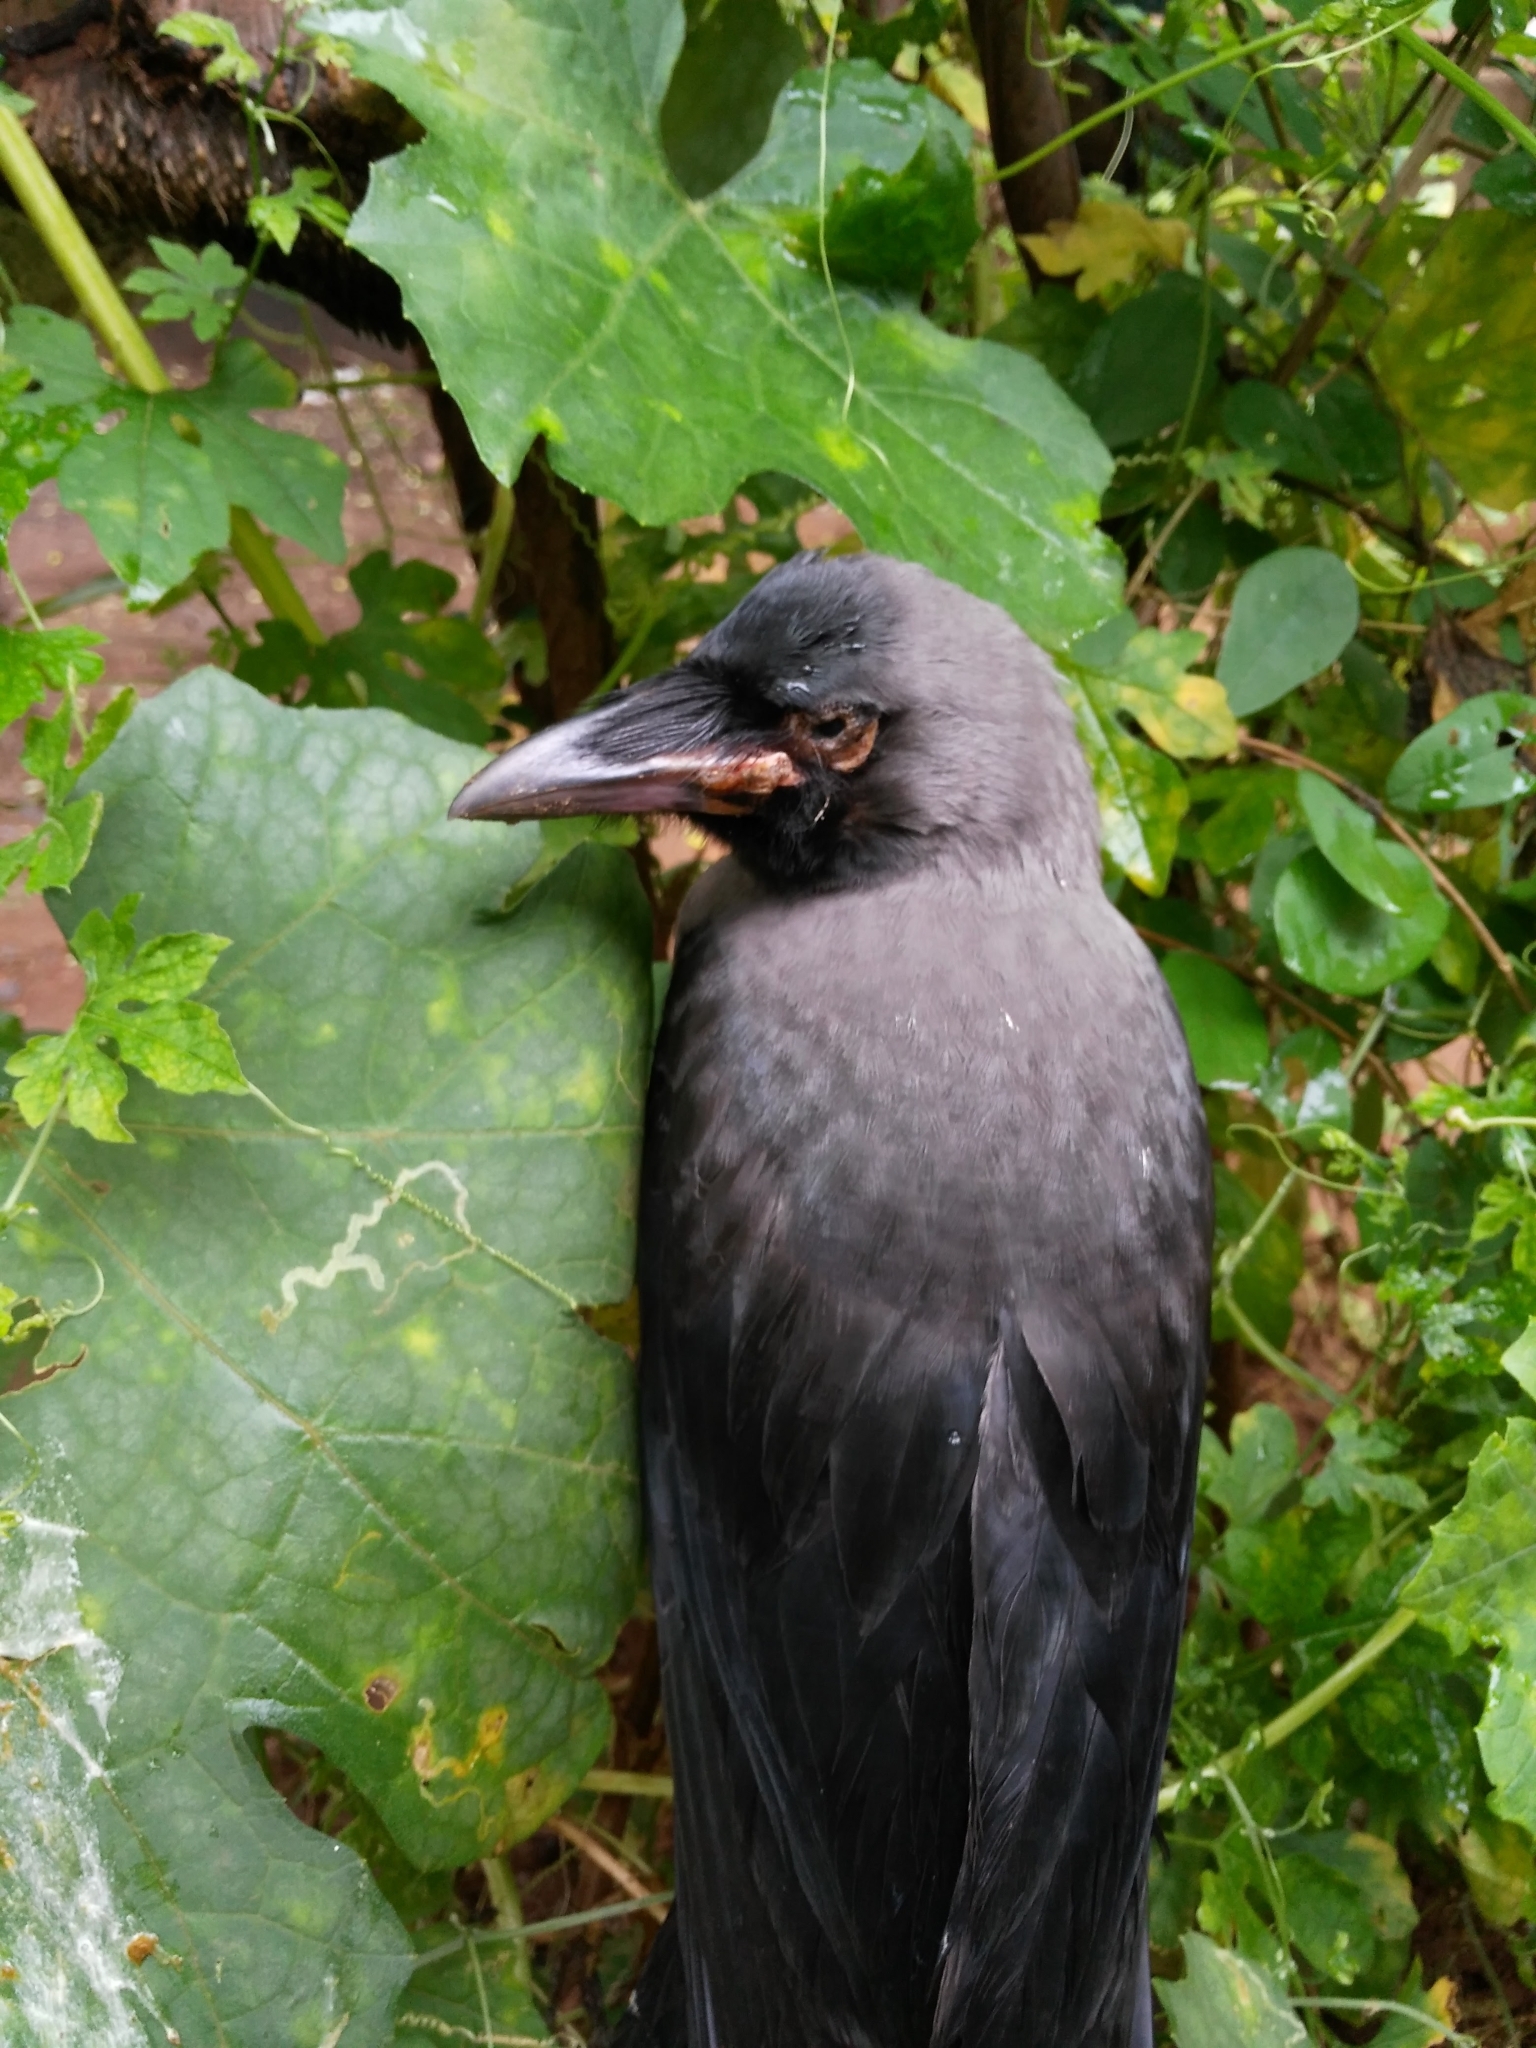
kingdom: Animalia
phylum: Chordata
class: Aves
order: Passeriformes
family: Corvidae
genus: Corvus
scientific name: Corvus splendens
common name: House crow
